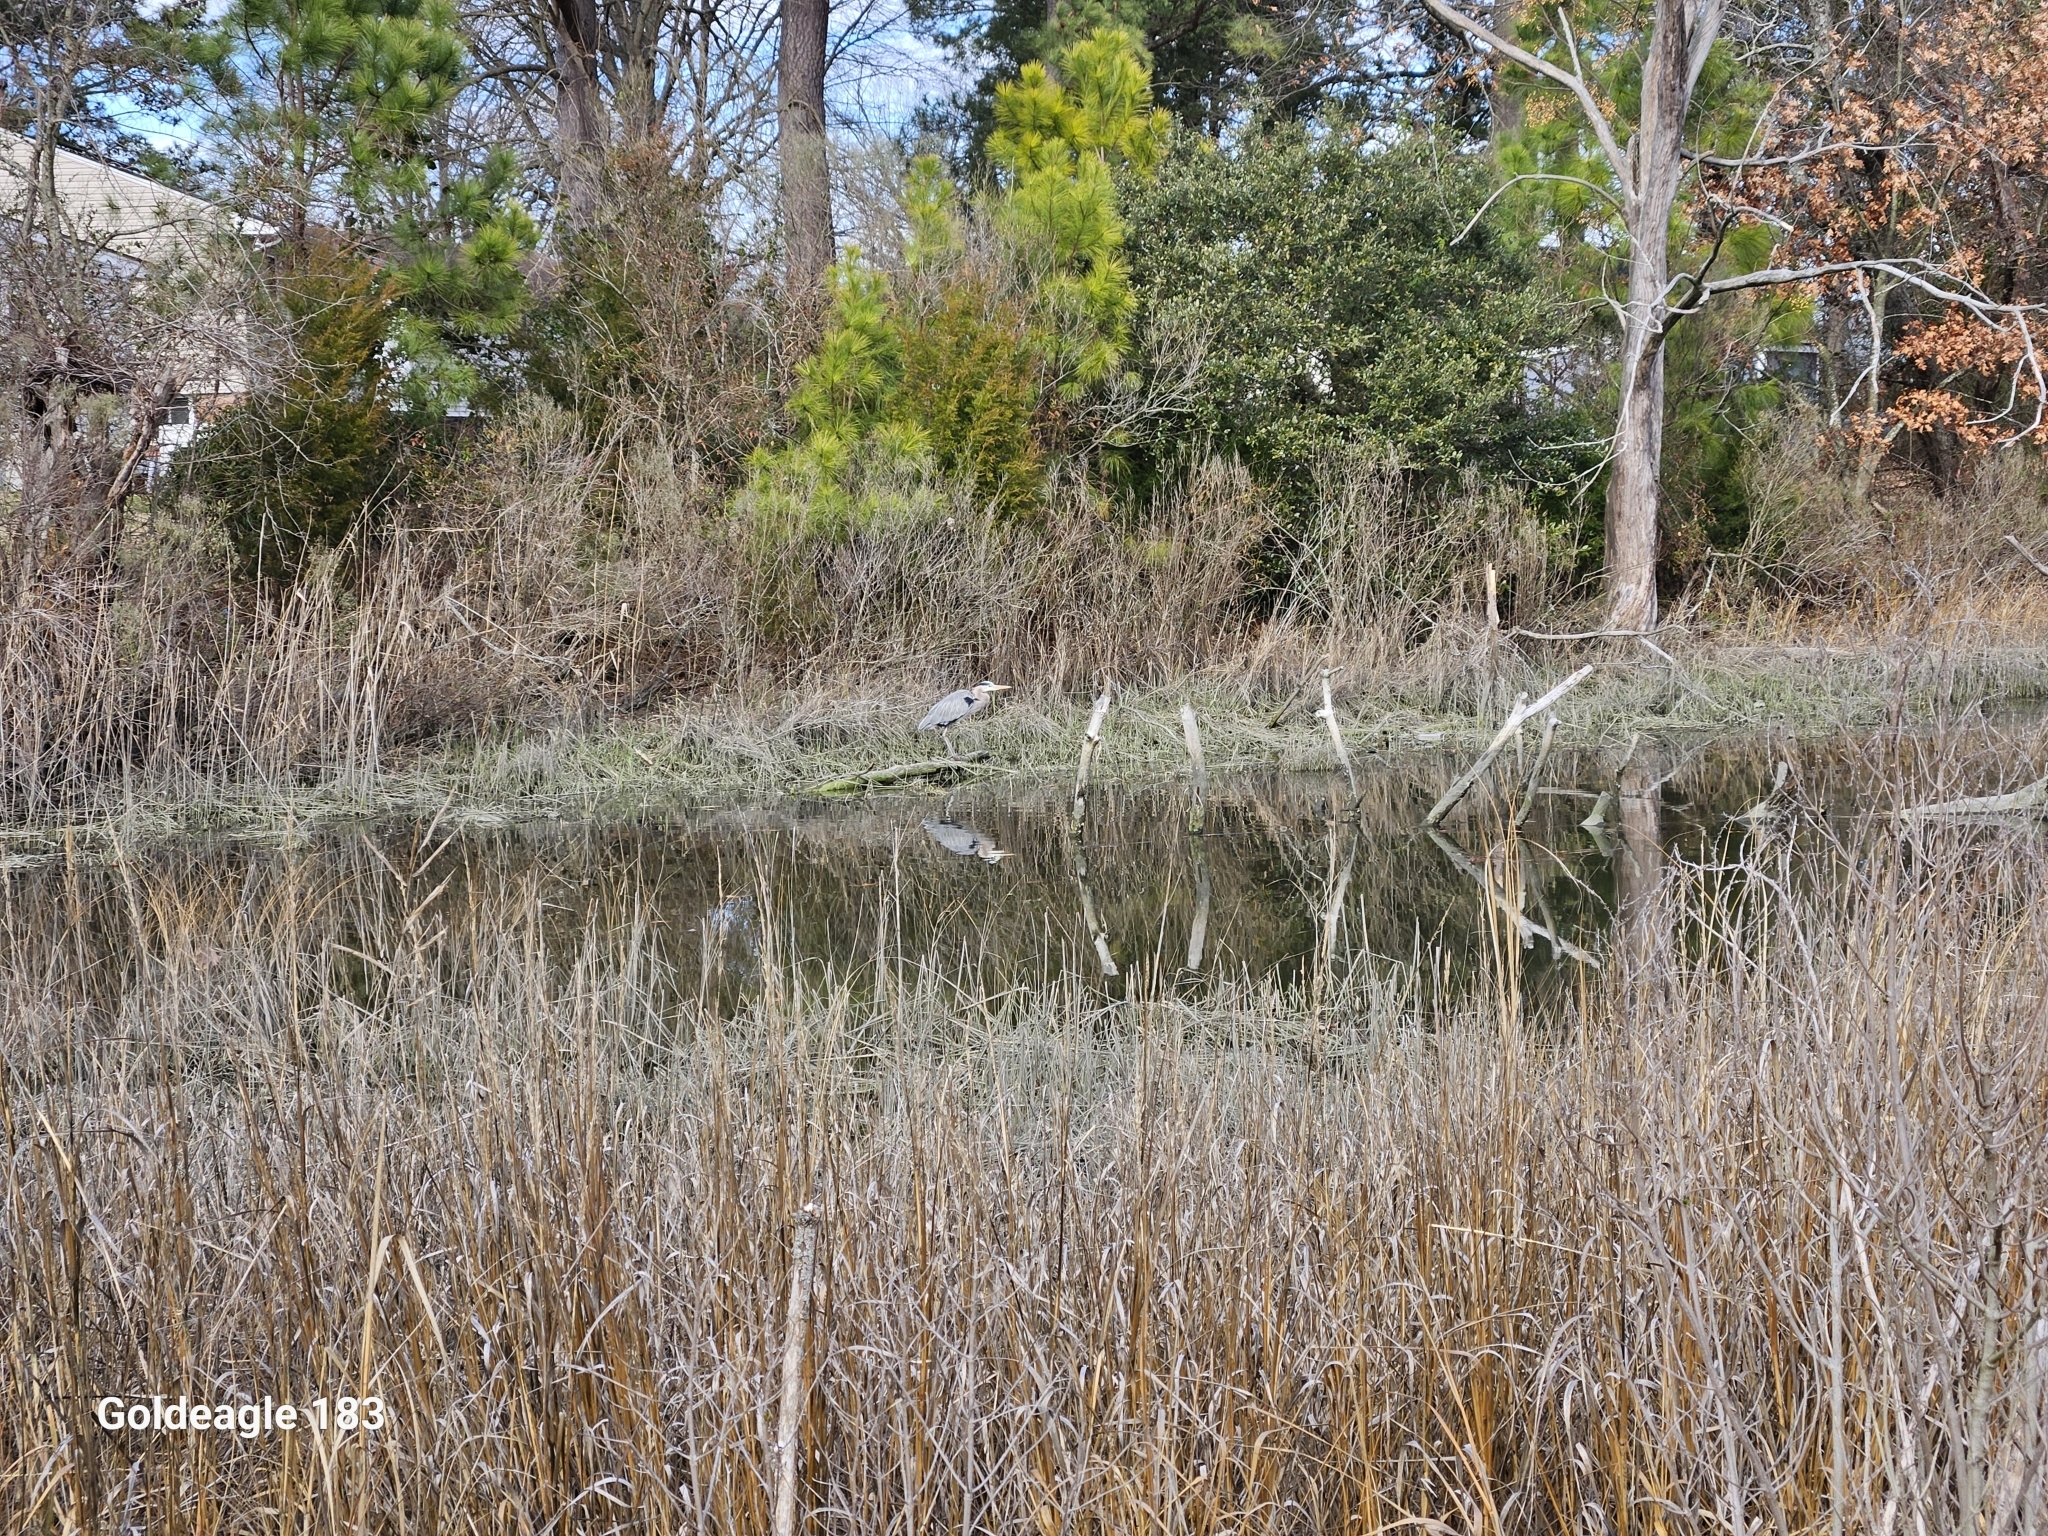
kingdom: Animalia
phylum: Chordata
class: Aves
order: Pelecaniformes
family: Ardeidae
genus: Ardea
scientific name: Ardea herodias
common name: Great blue heron
